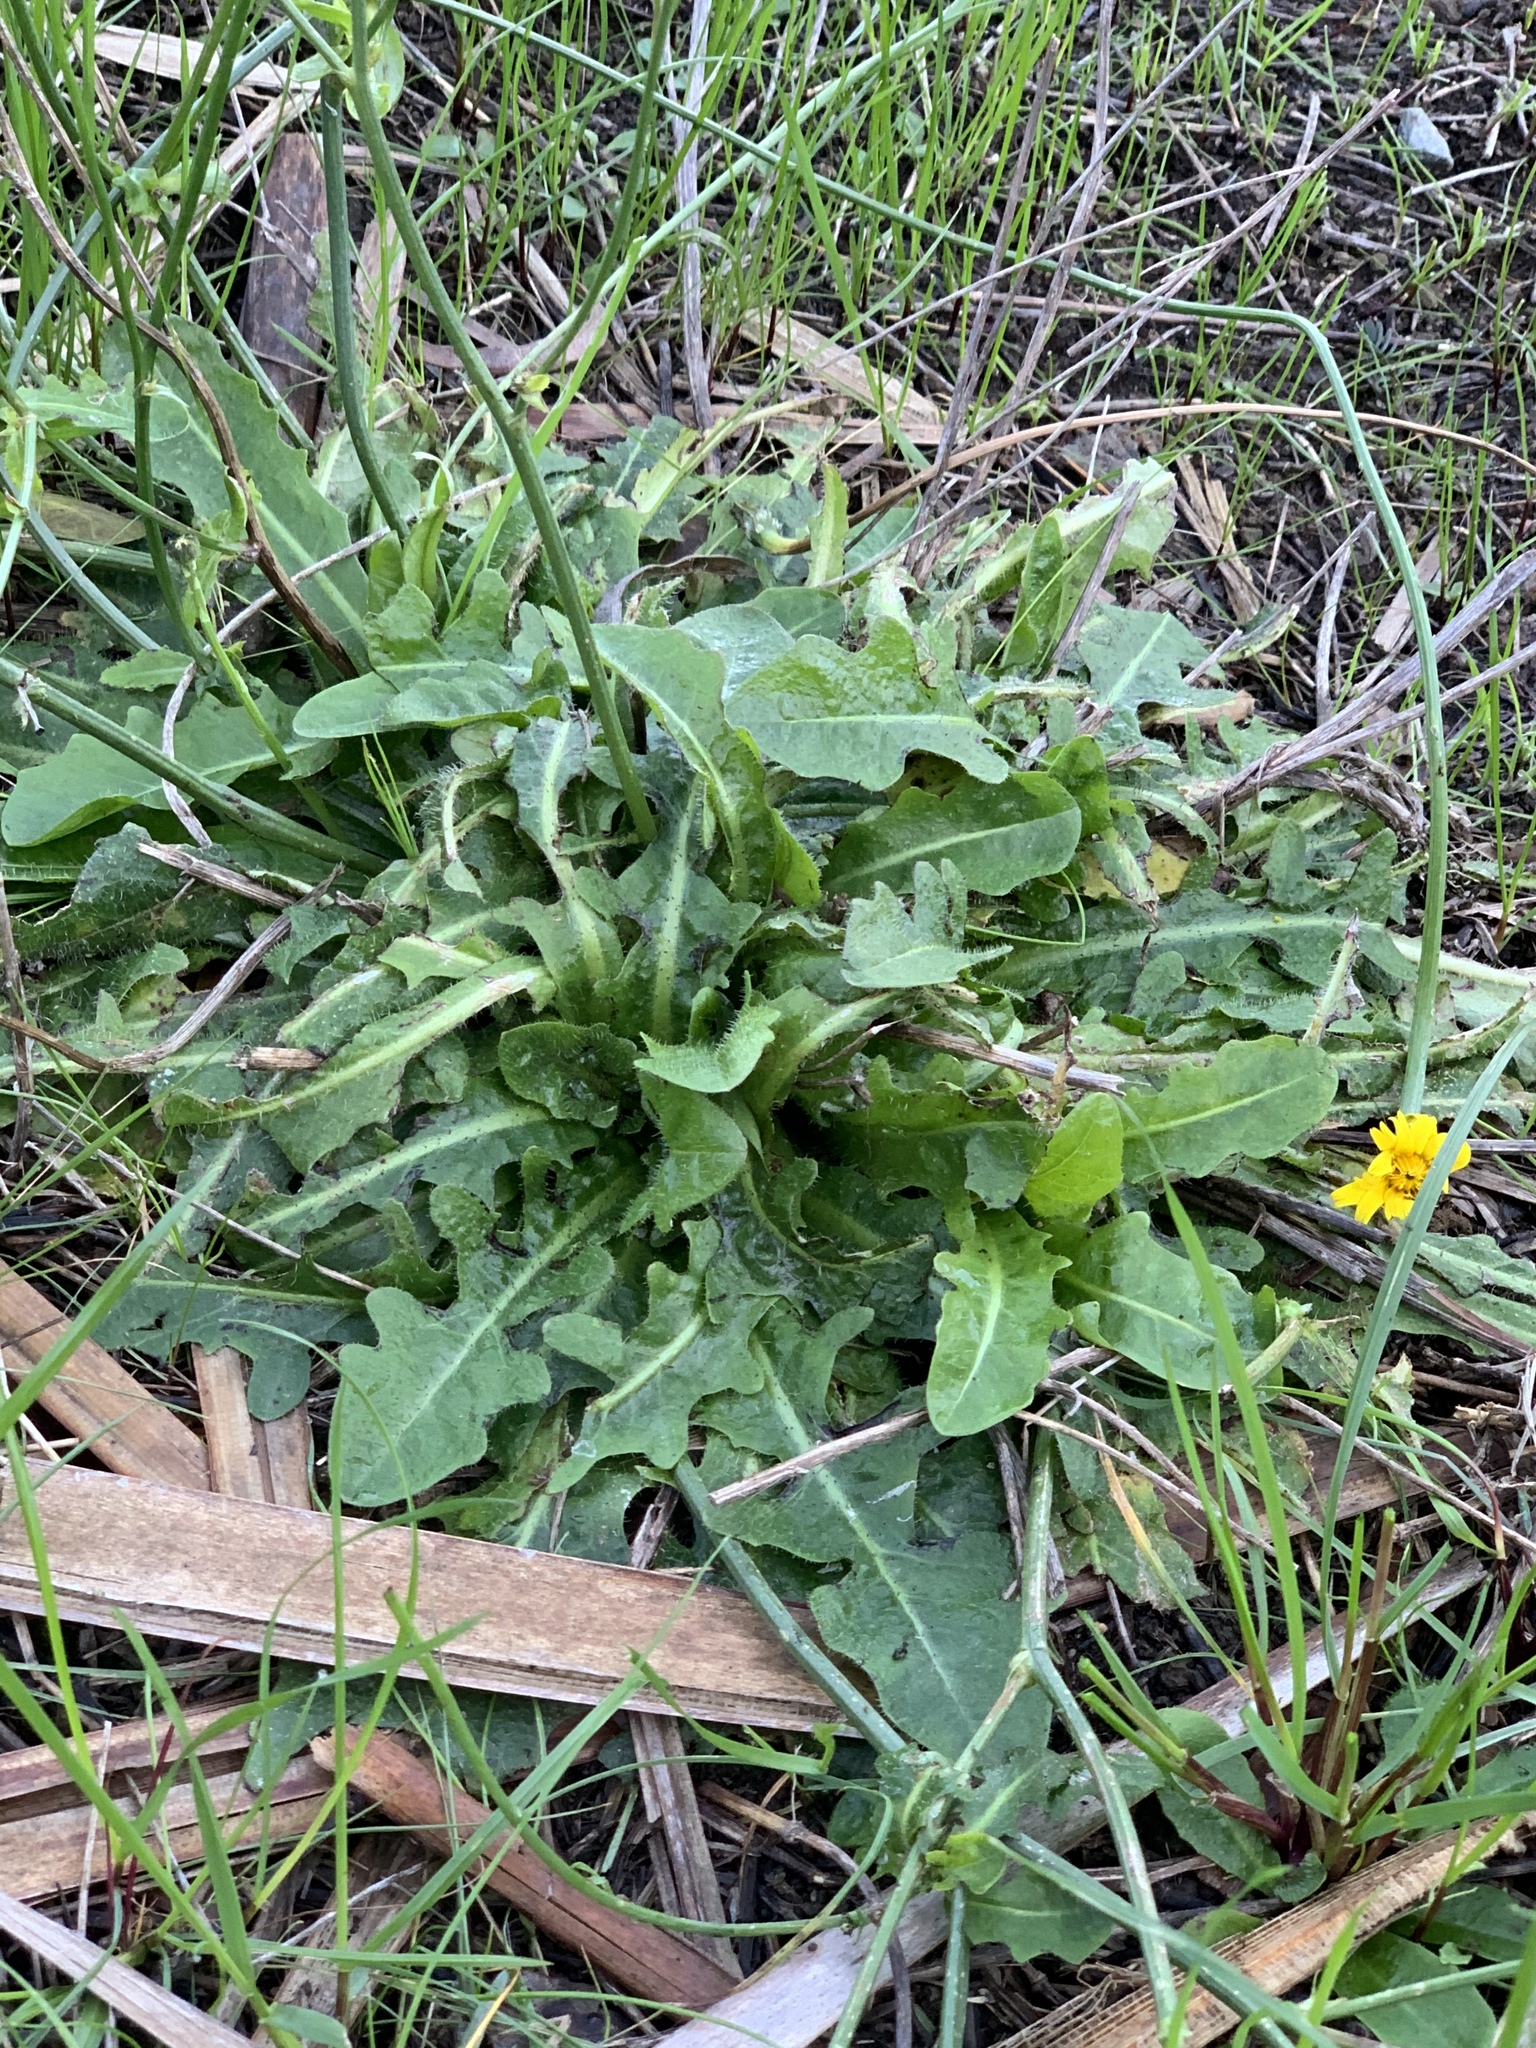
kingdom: Plantae
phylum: Tracheophyta
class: Magnoliopsida
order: Asterales
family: Asteraceae
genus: Hypochaeris
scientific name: Hypochaeris radicata
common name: Flatweed
